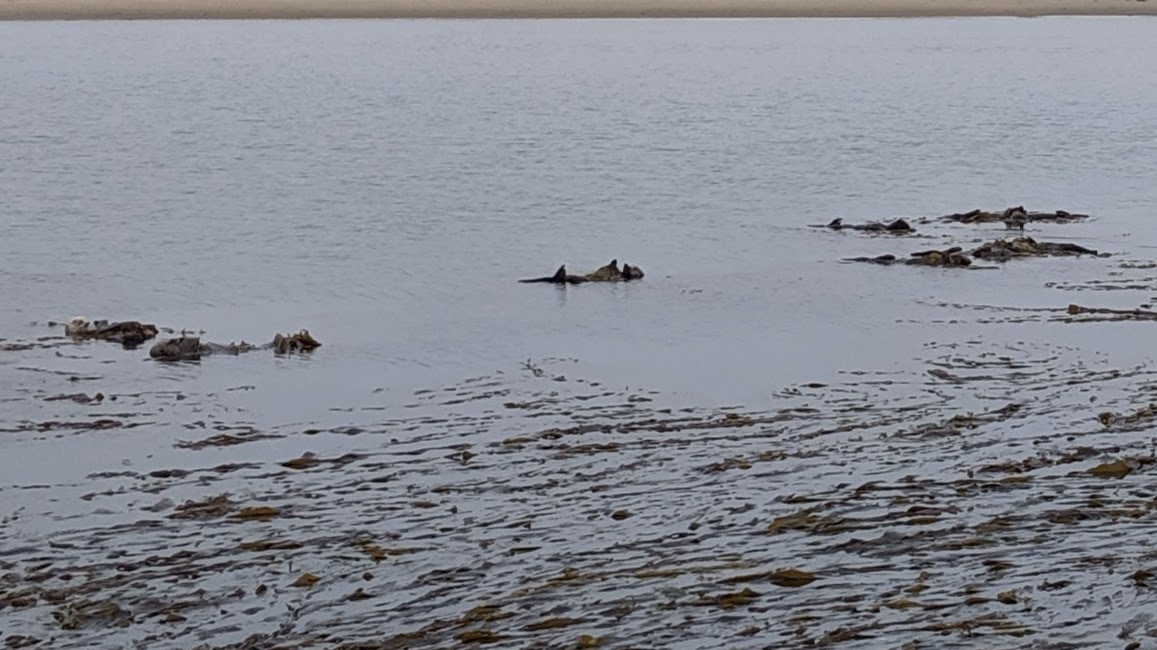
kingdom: Animalia
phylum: Chordata
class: Mammalia
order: Carnivora
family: Mustelidae
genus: Enhydra
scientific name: Enhydra lutris
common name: Sea otter
